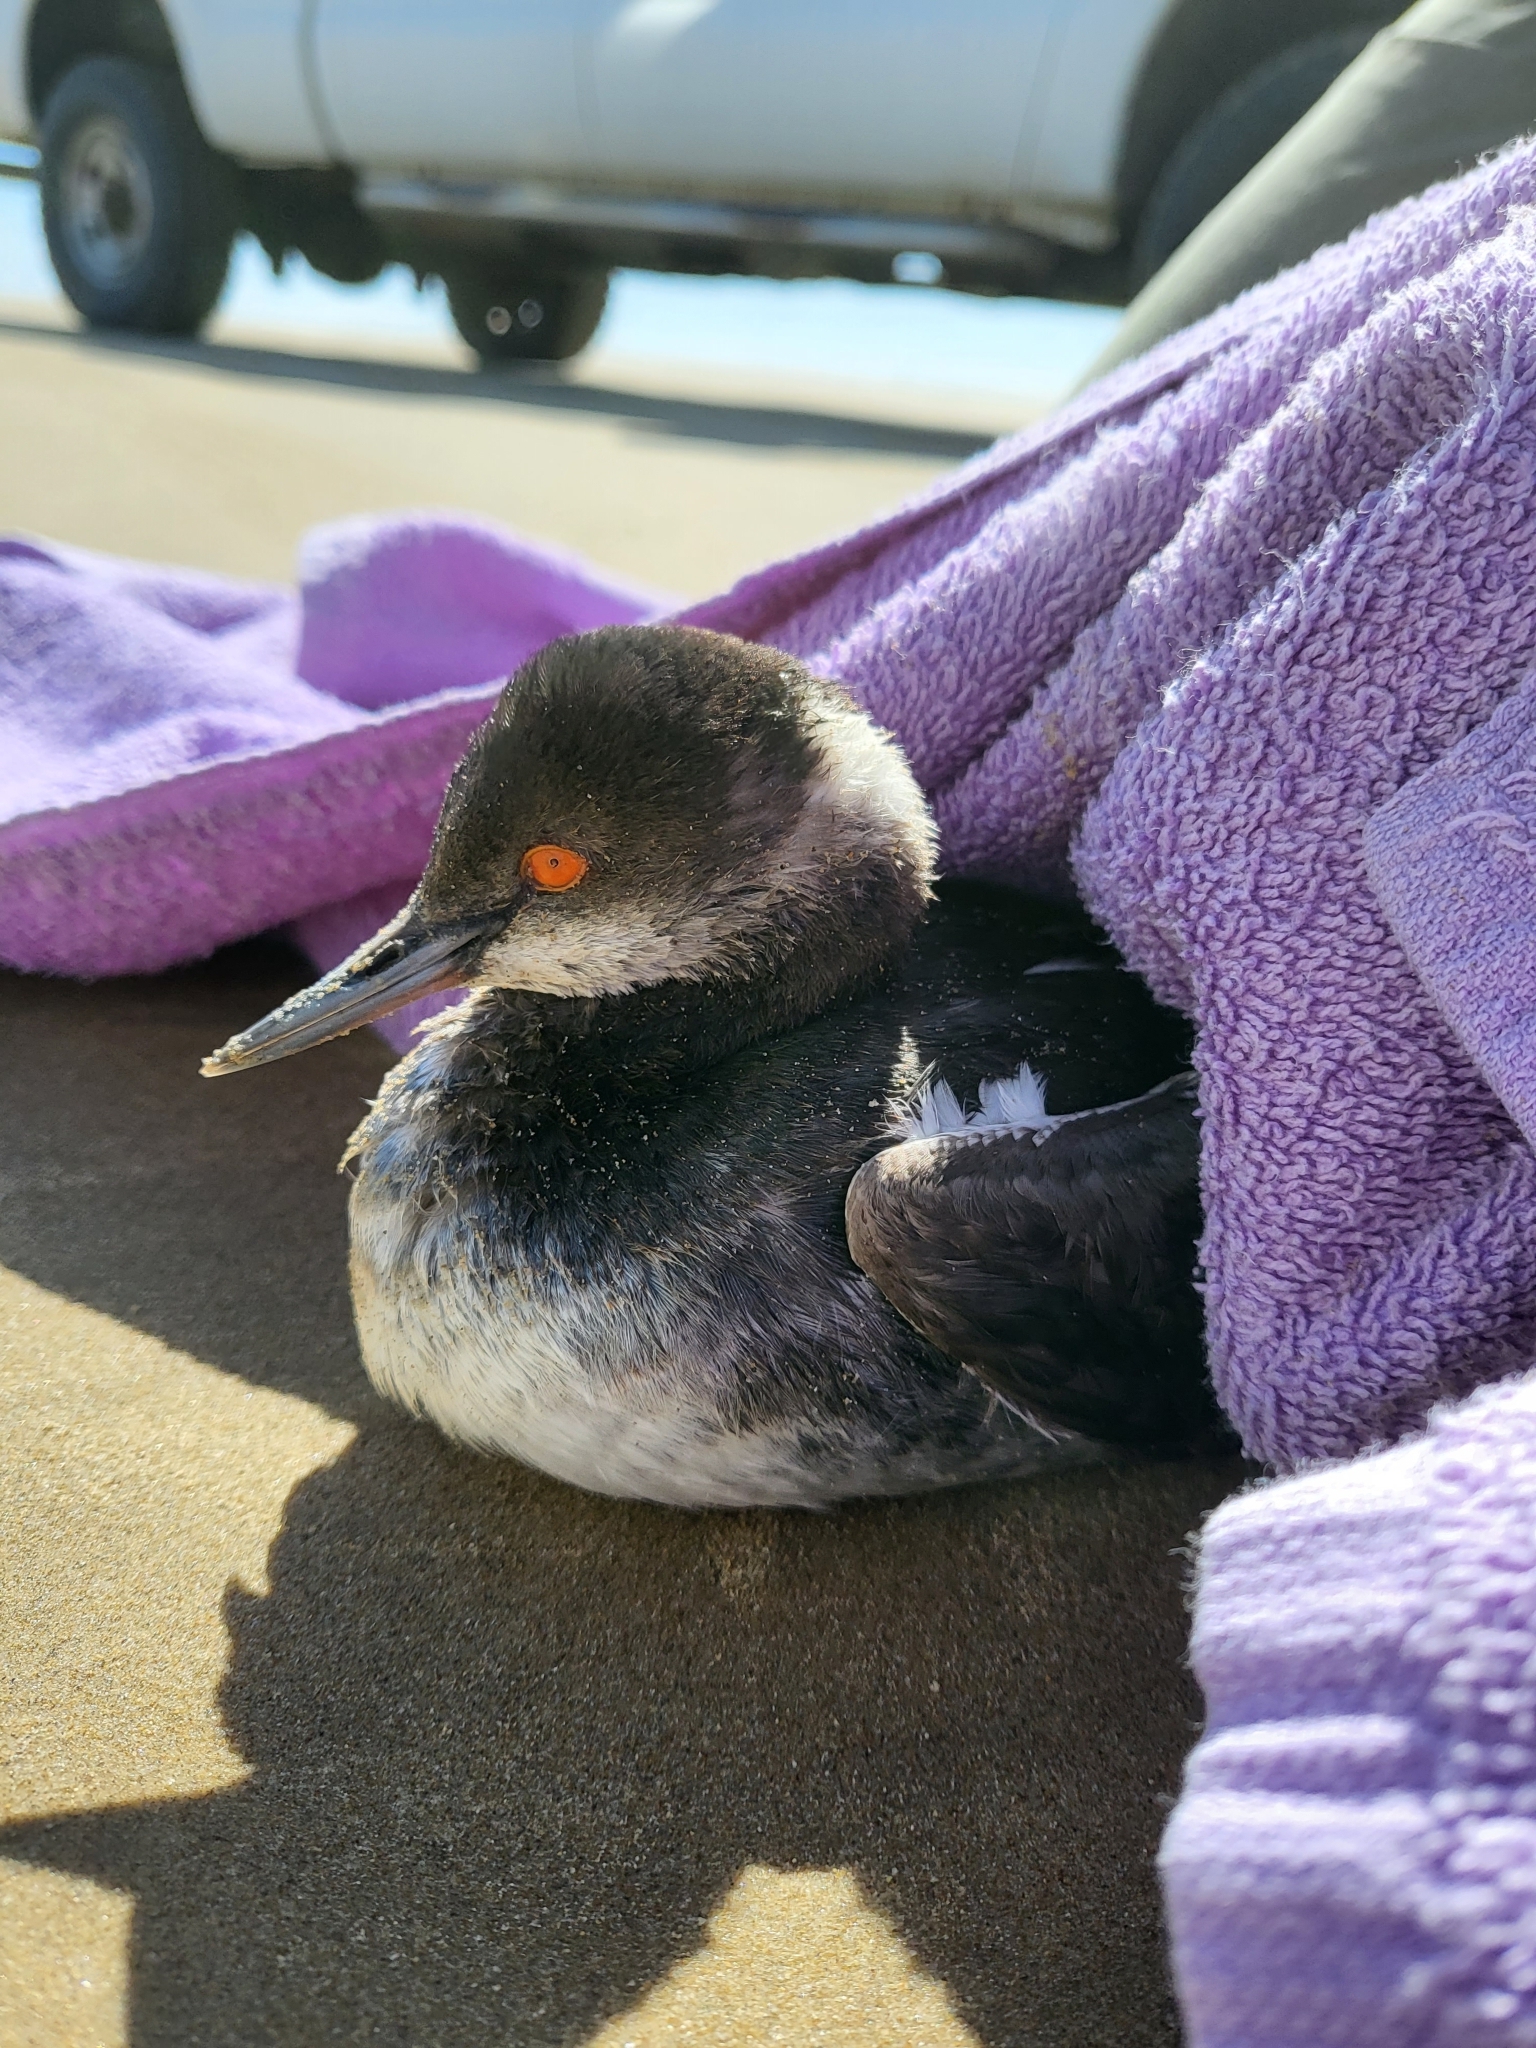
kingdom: Animalia
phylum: Chordata
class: Aves
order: Podicipediformes
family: Podicipedidae
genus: Podiceps
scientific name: Podiceps nigricollis
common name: Black-necked grebe
